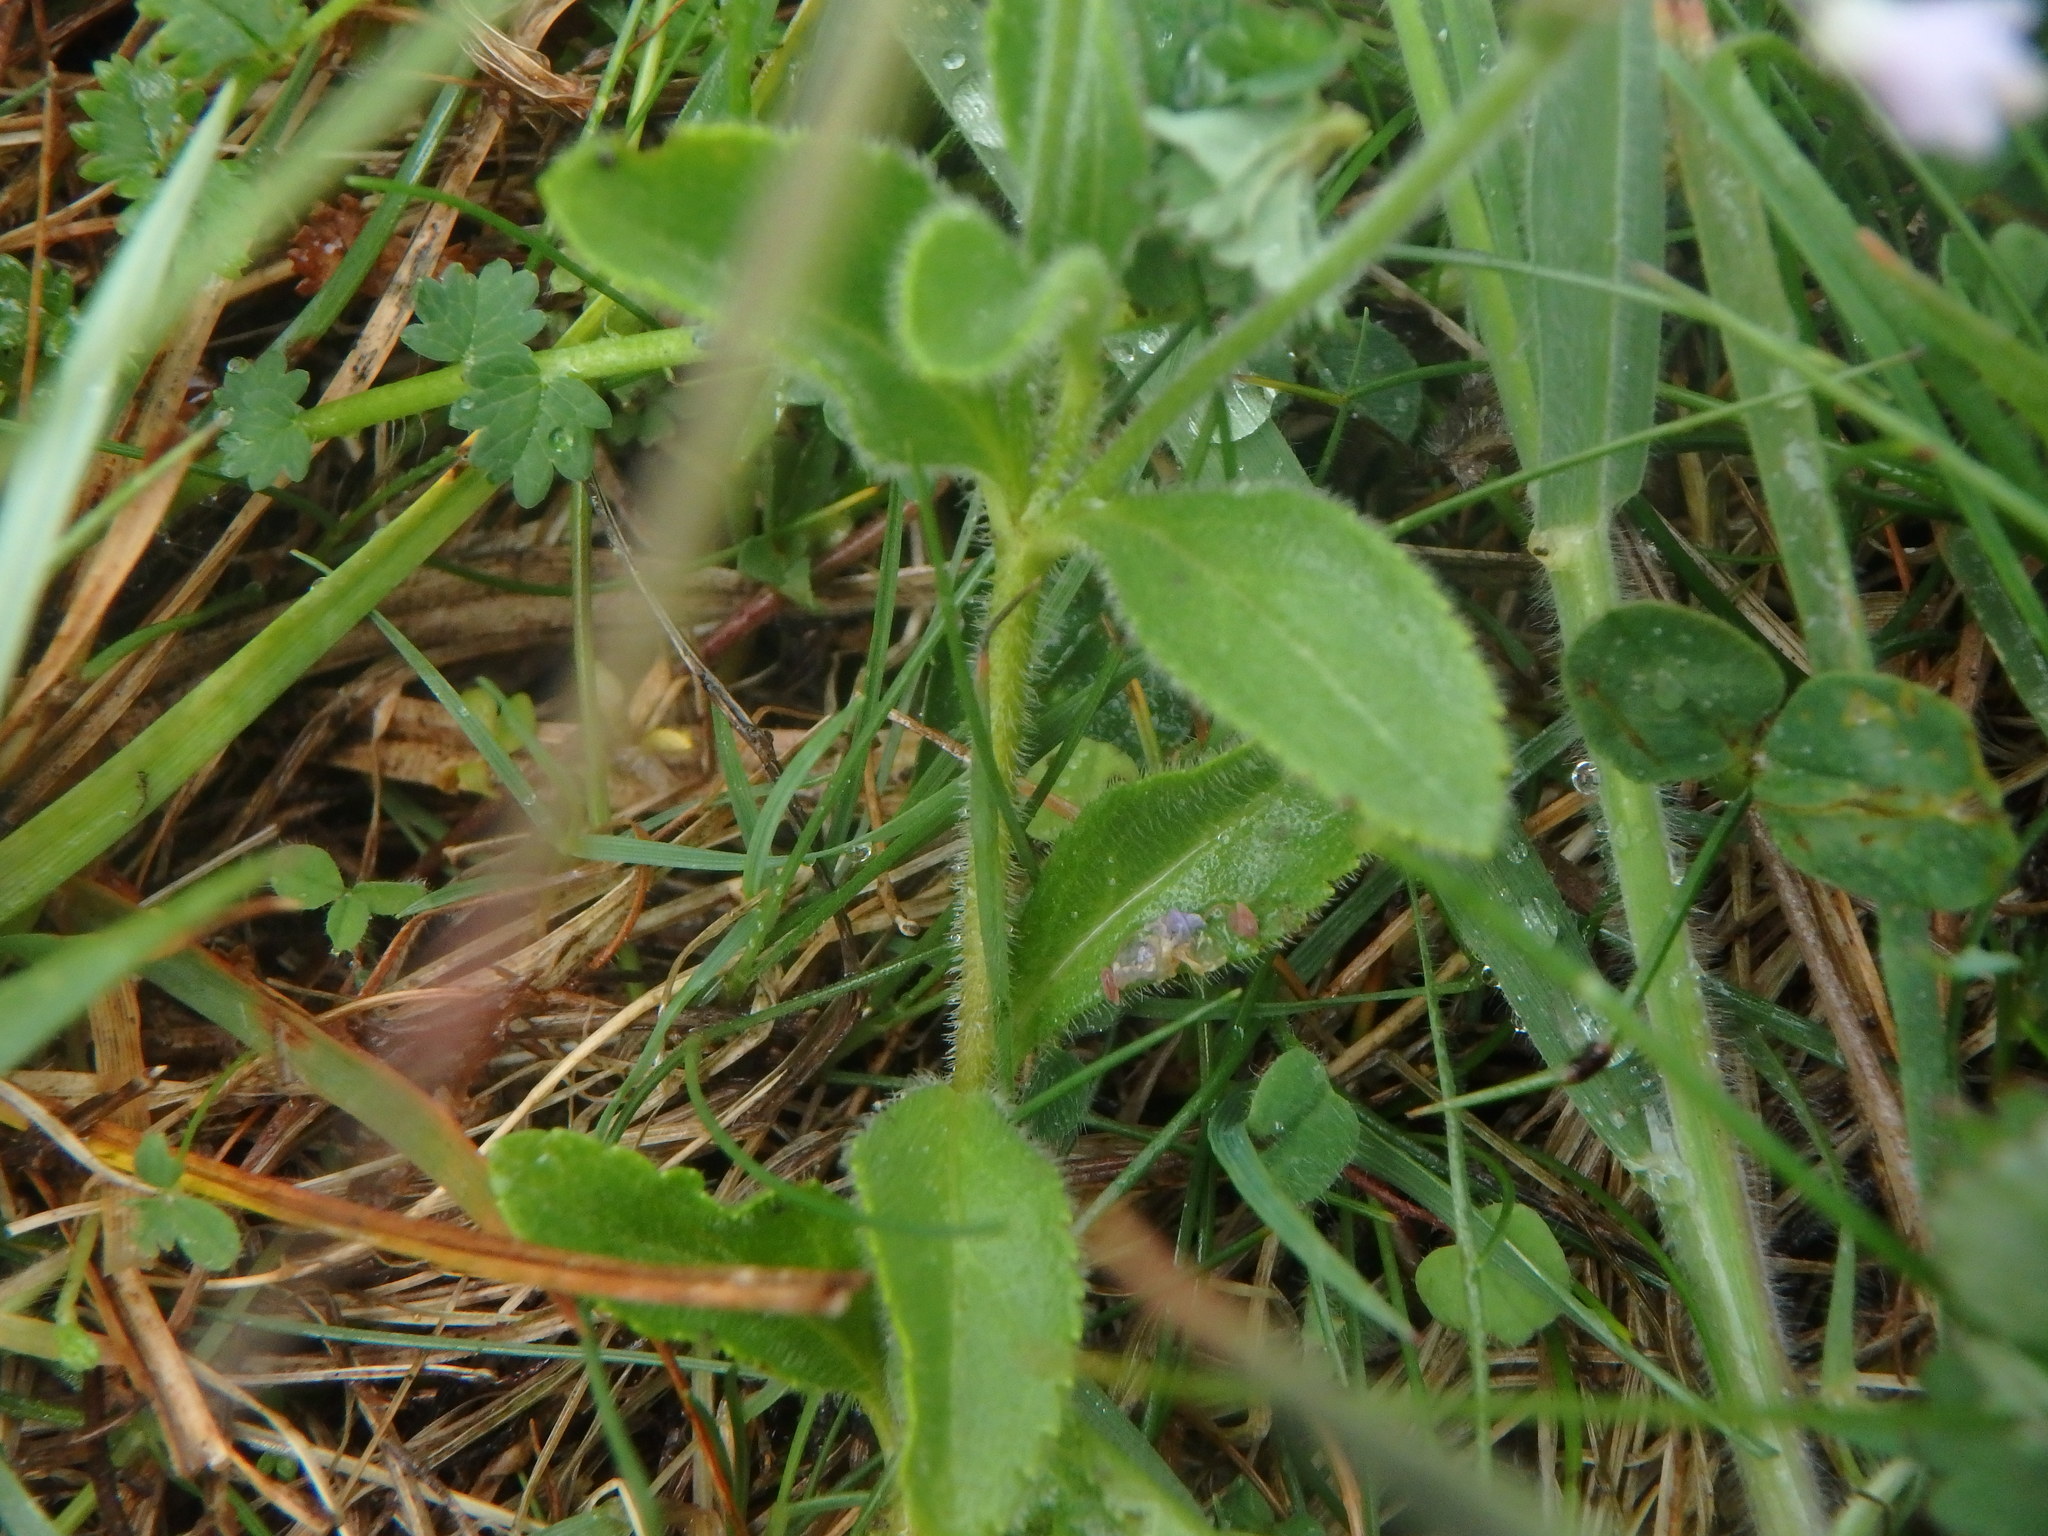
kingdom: Plantae
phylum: Tracheophyta
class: Magnoliopsida
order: Lamiales
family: Plantaginaceae
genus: Veronica
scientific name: Veronica officinalis
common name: Common speedwell
